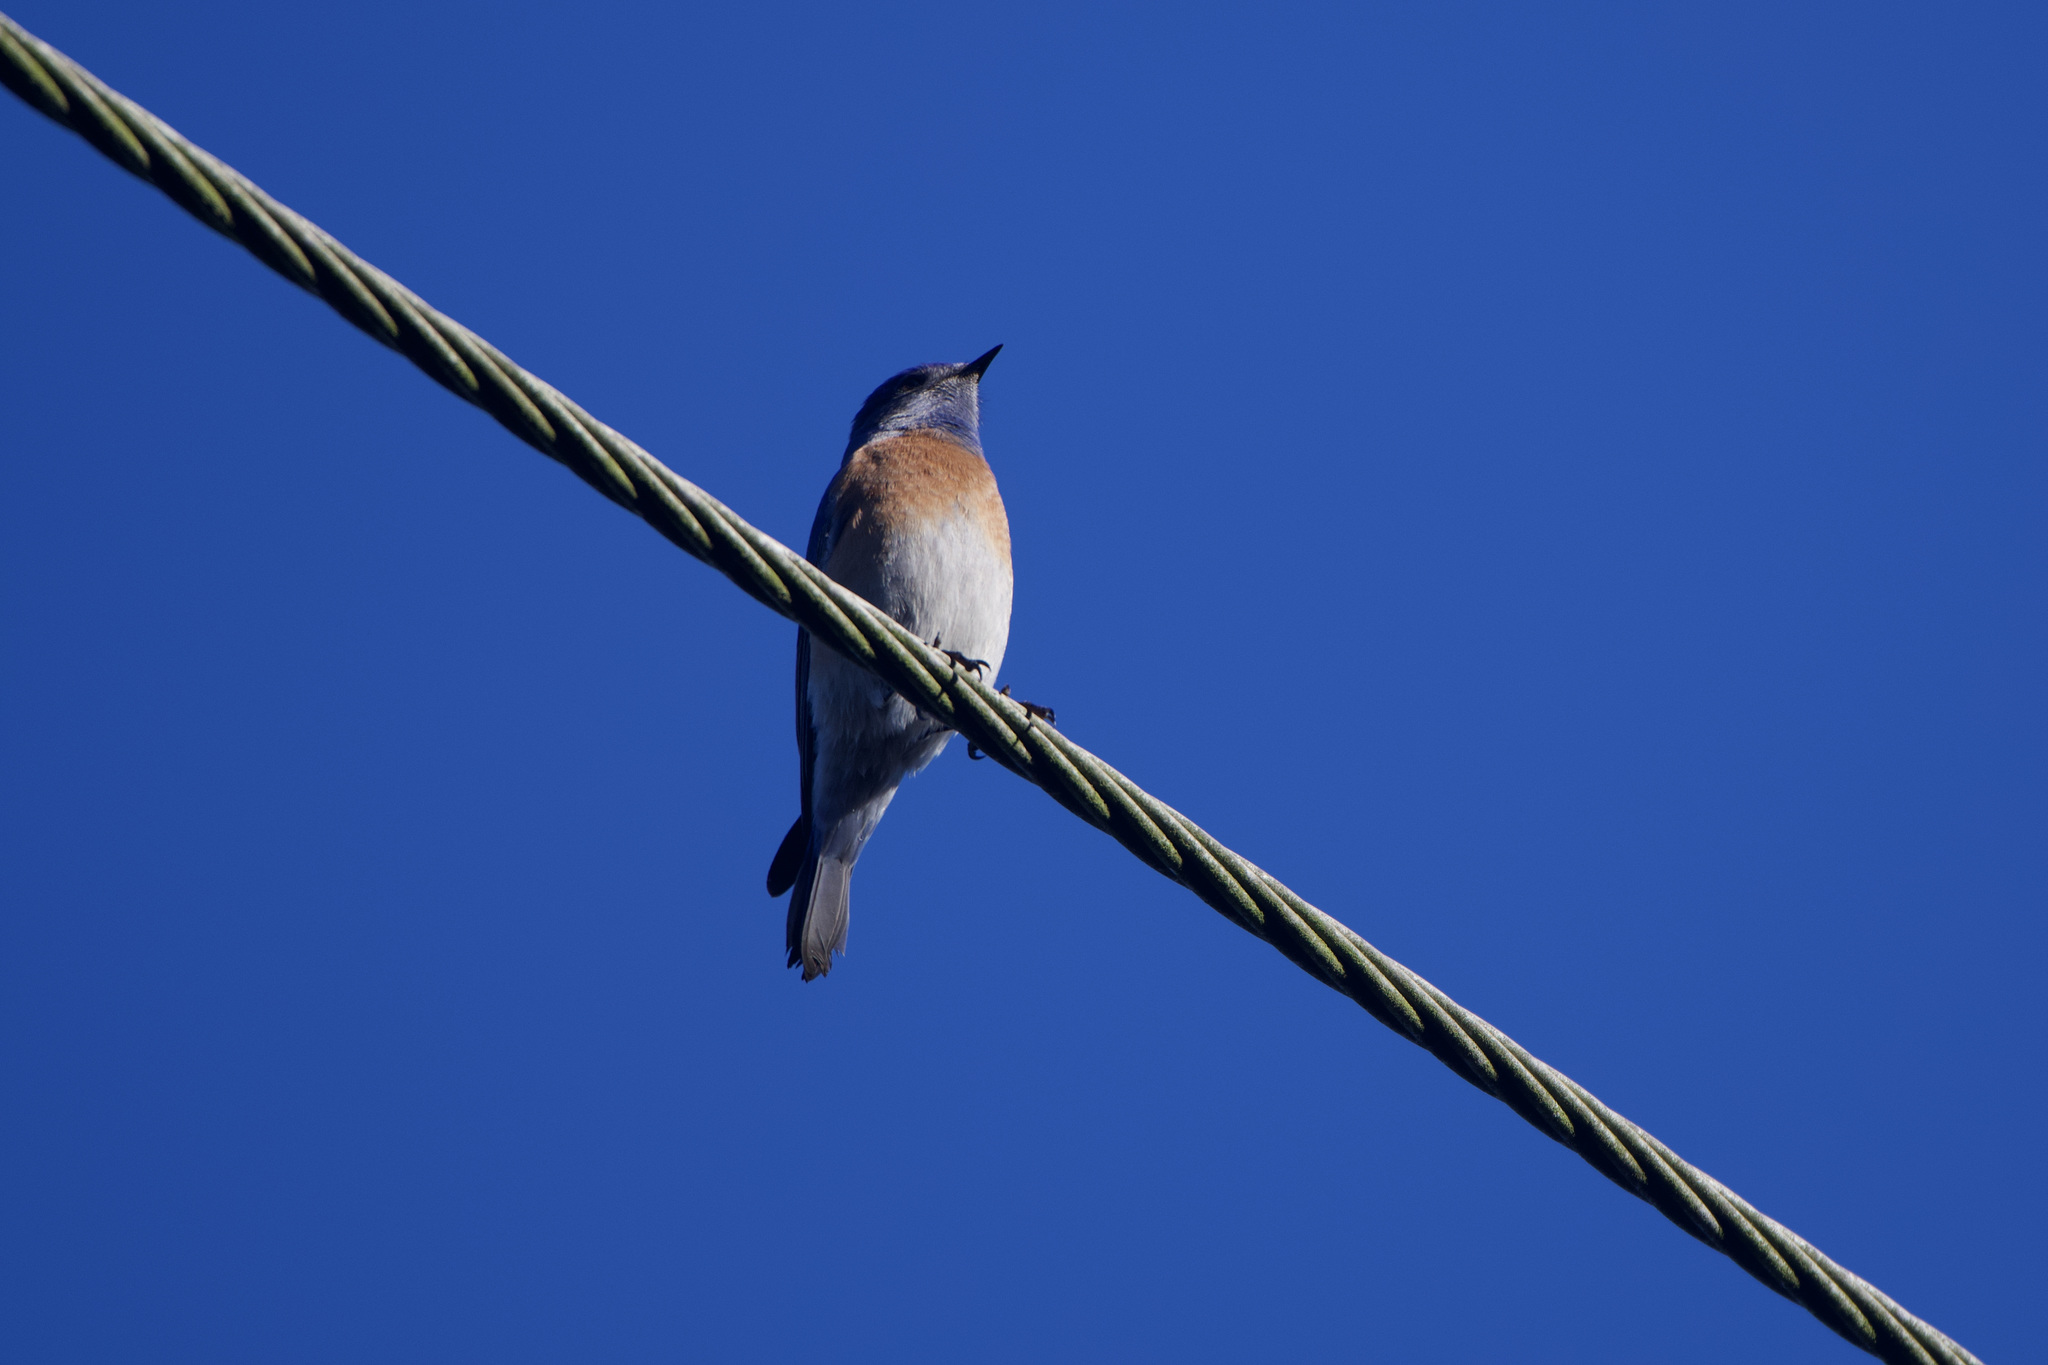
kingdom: Animalia
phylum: Chordata
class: Aves
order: Passeriformes
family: Turdidae
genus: Sialia
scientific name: Sialia mexicana
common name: Western bluebird
